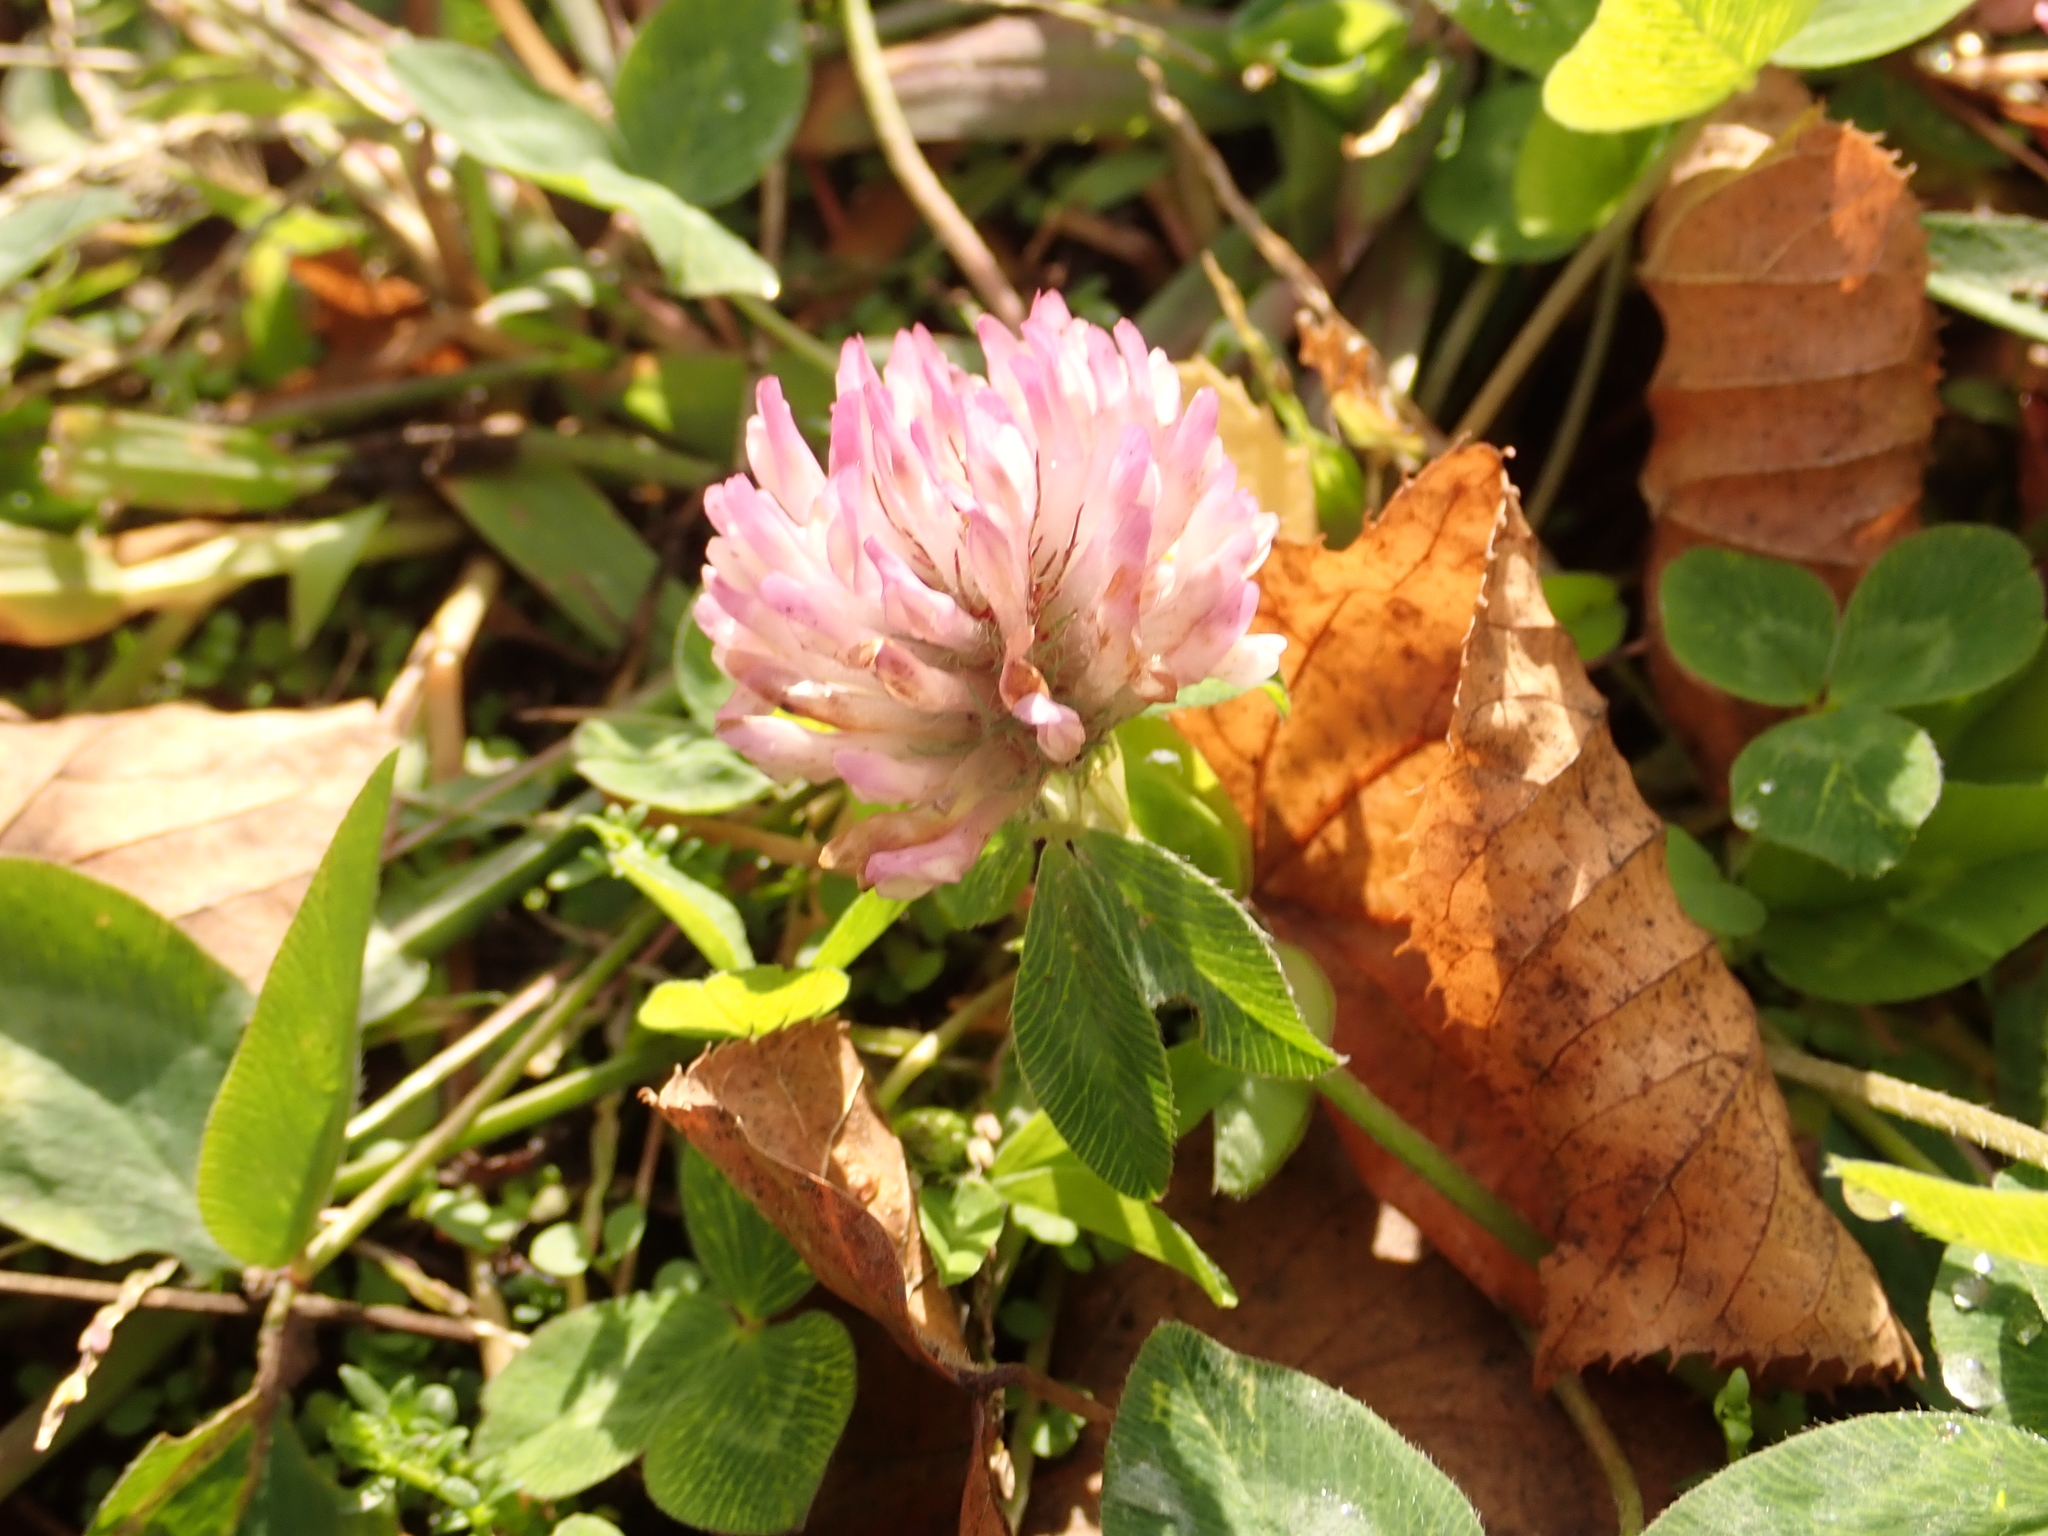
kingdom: Plantae
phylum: Tracheophyta
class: Magnoliopsida
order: Fabales
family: Fabaceae
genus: Trifolium
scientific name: Trifolium pratense
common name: Red clover
